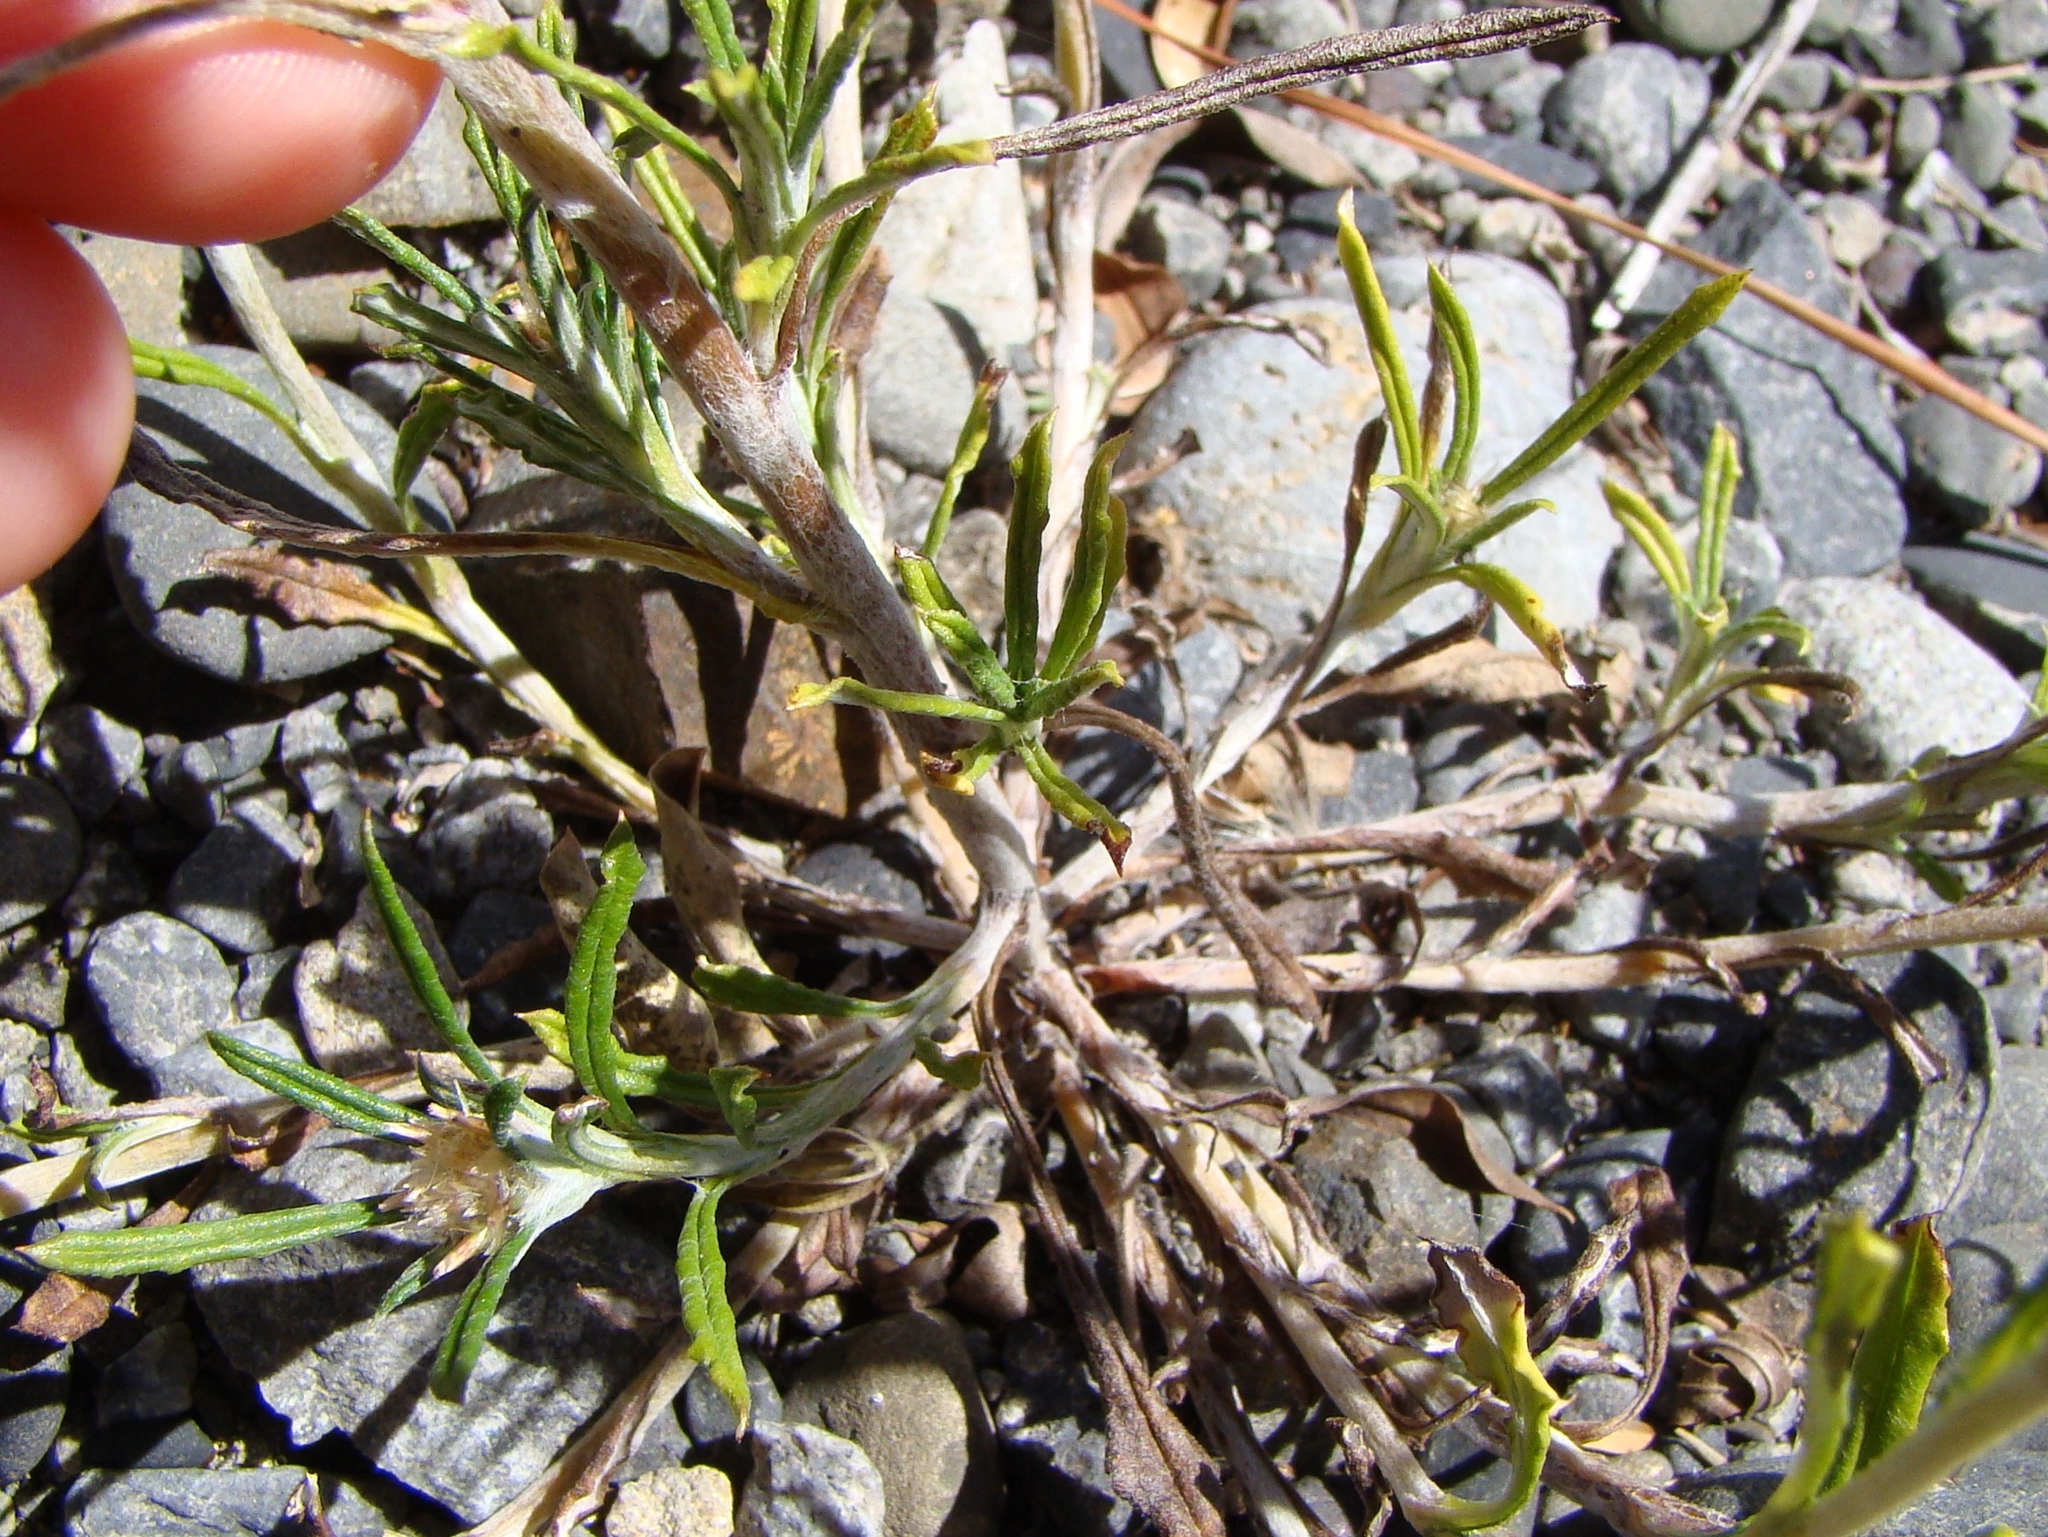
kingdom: Plantae
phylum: Tracheophyta
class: Magnoliopsida
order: Asterales
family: Asteraceae
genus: Euchiton
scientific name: Euchiton sphaericus
